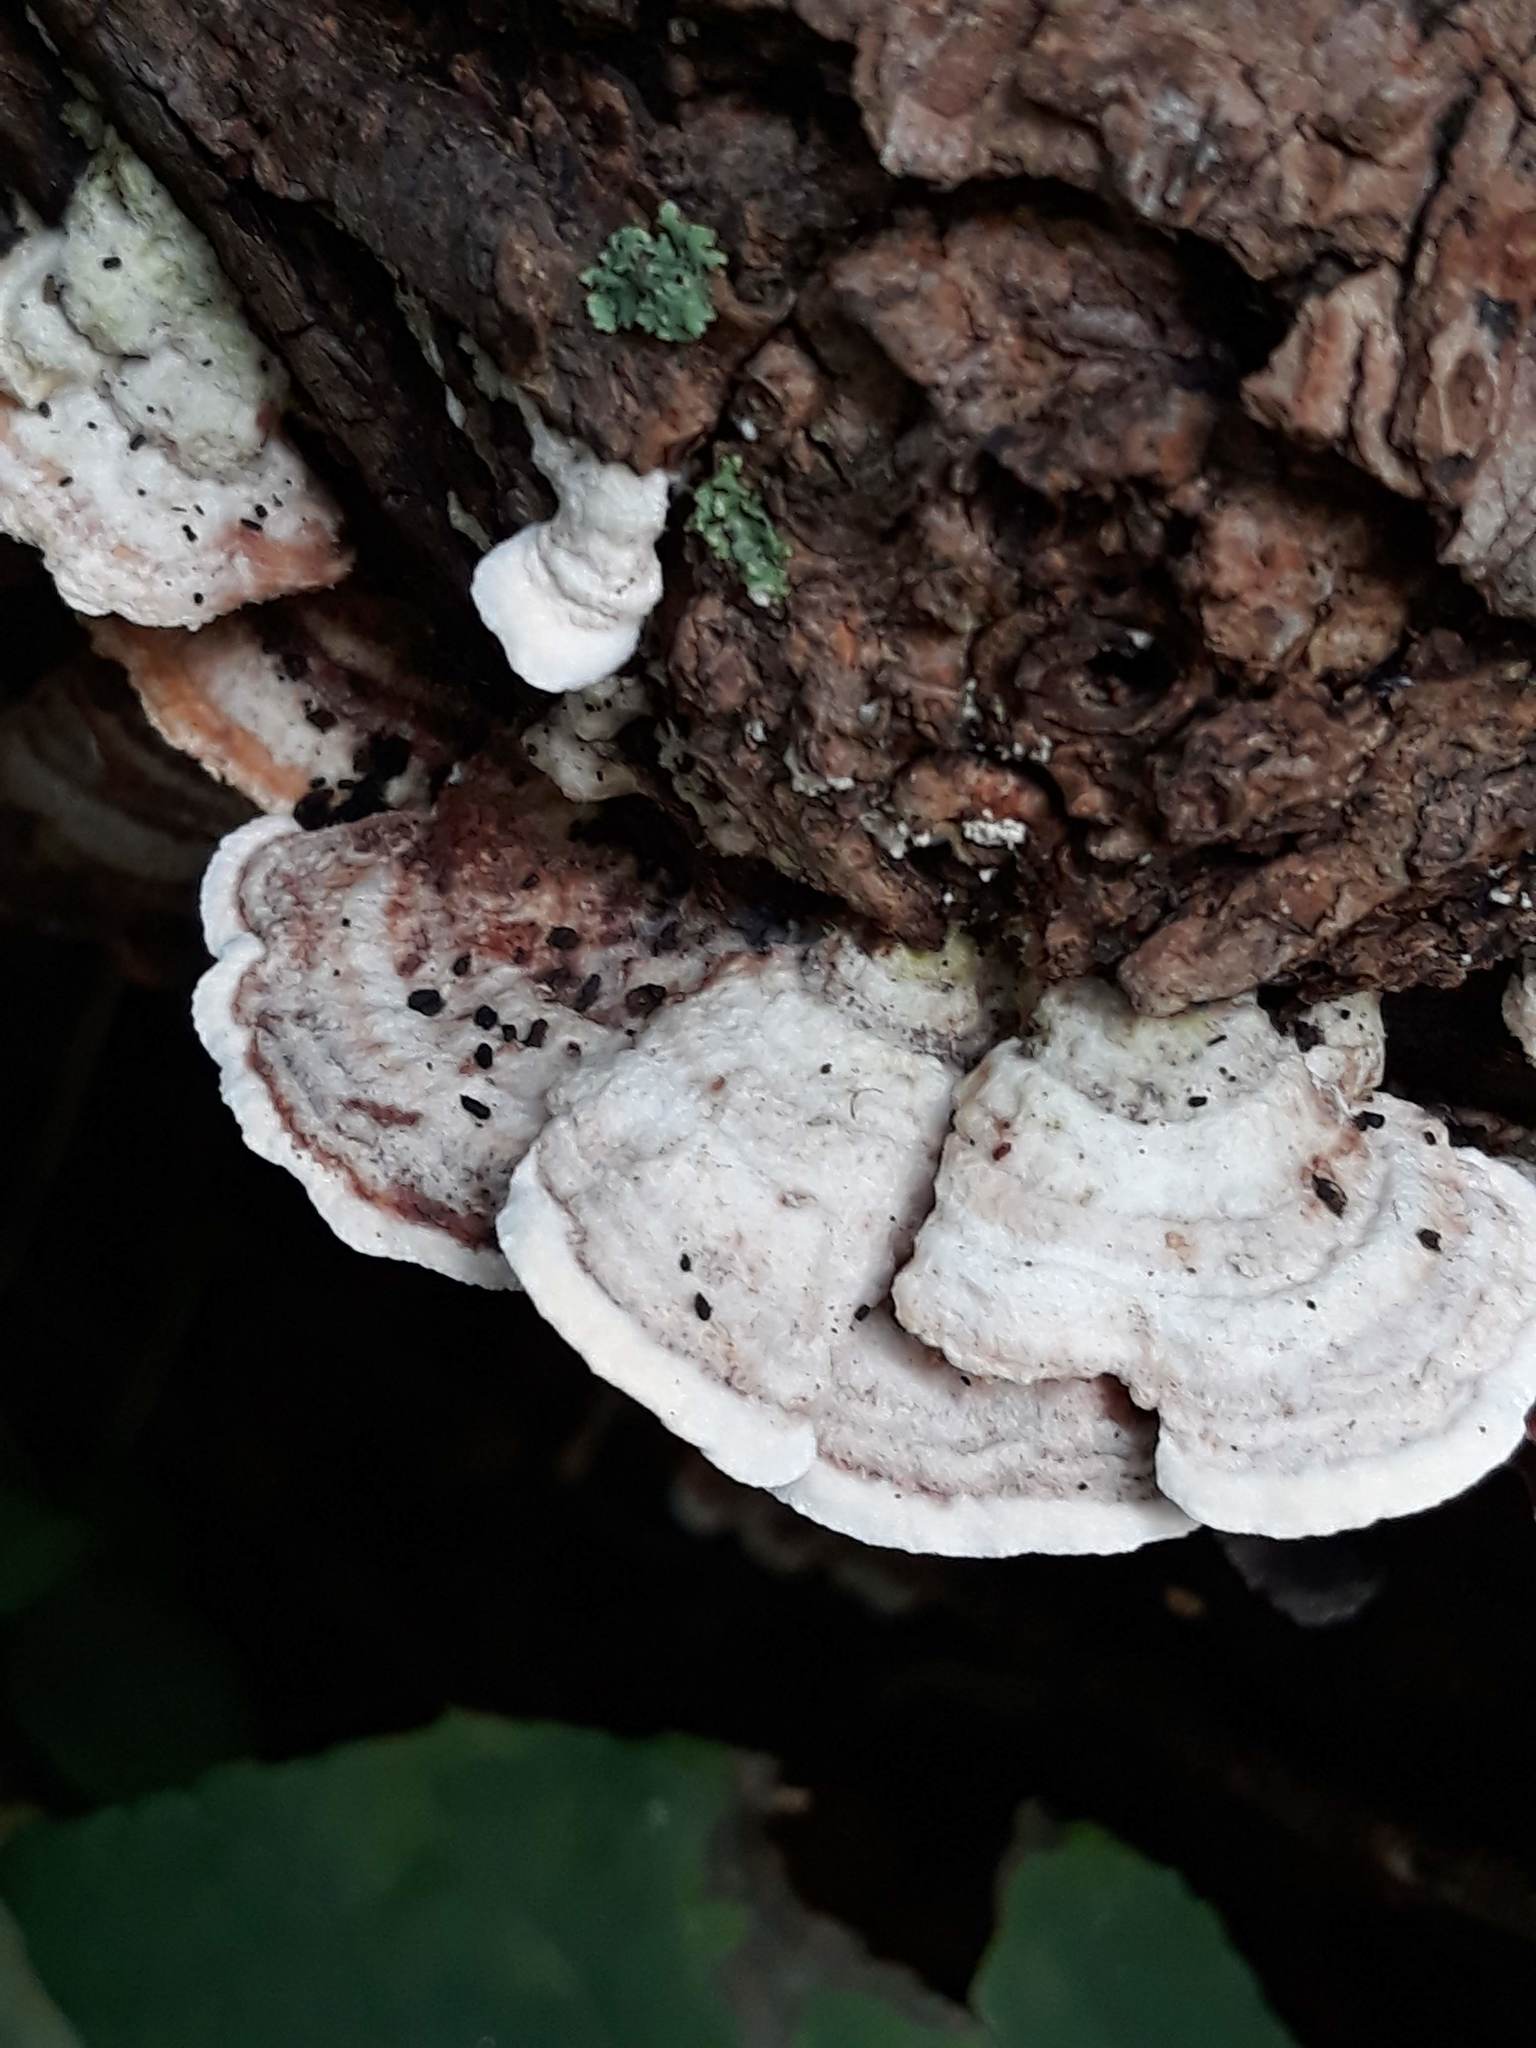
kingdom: Fungi
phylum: Basidiomycota
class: Agaricomycetes
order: Hymenochaetales
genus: Trichaptum
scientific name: Trichaptum biforme
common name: Violet-toothed polypore
